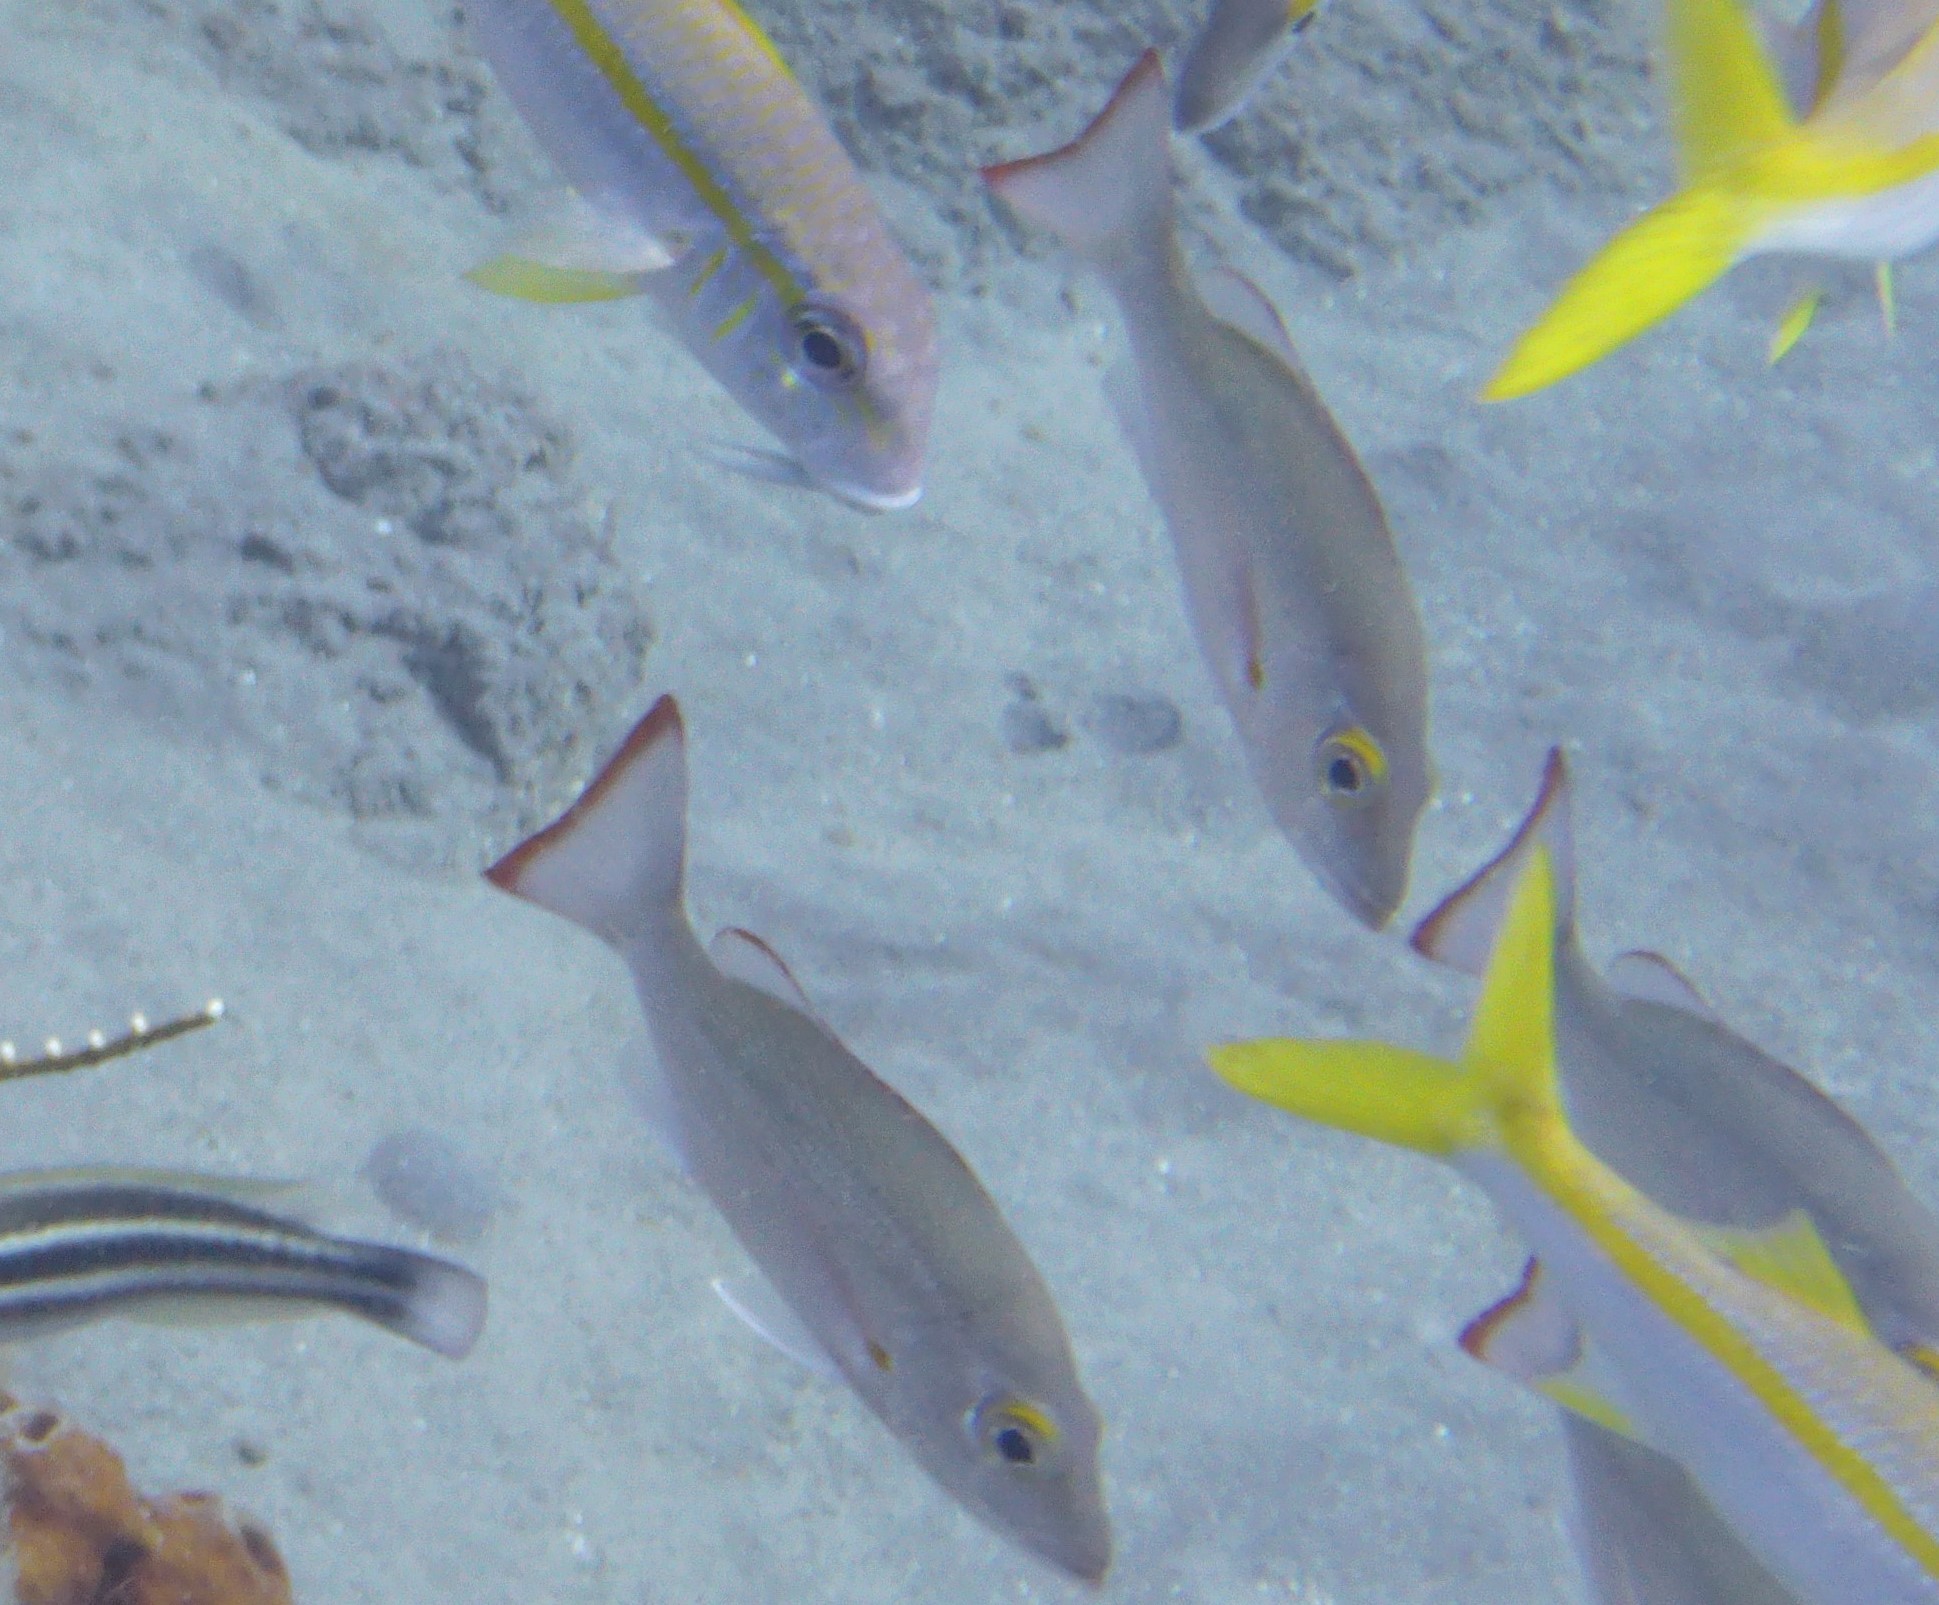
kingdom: Animalia
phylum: Chordata
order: Perciformes
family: Lutjanidae
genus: Lutjanus
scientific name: Lutjanus mahogoni
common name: Spot snapper
